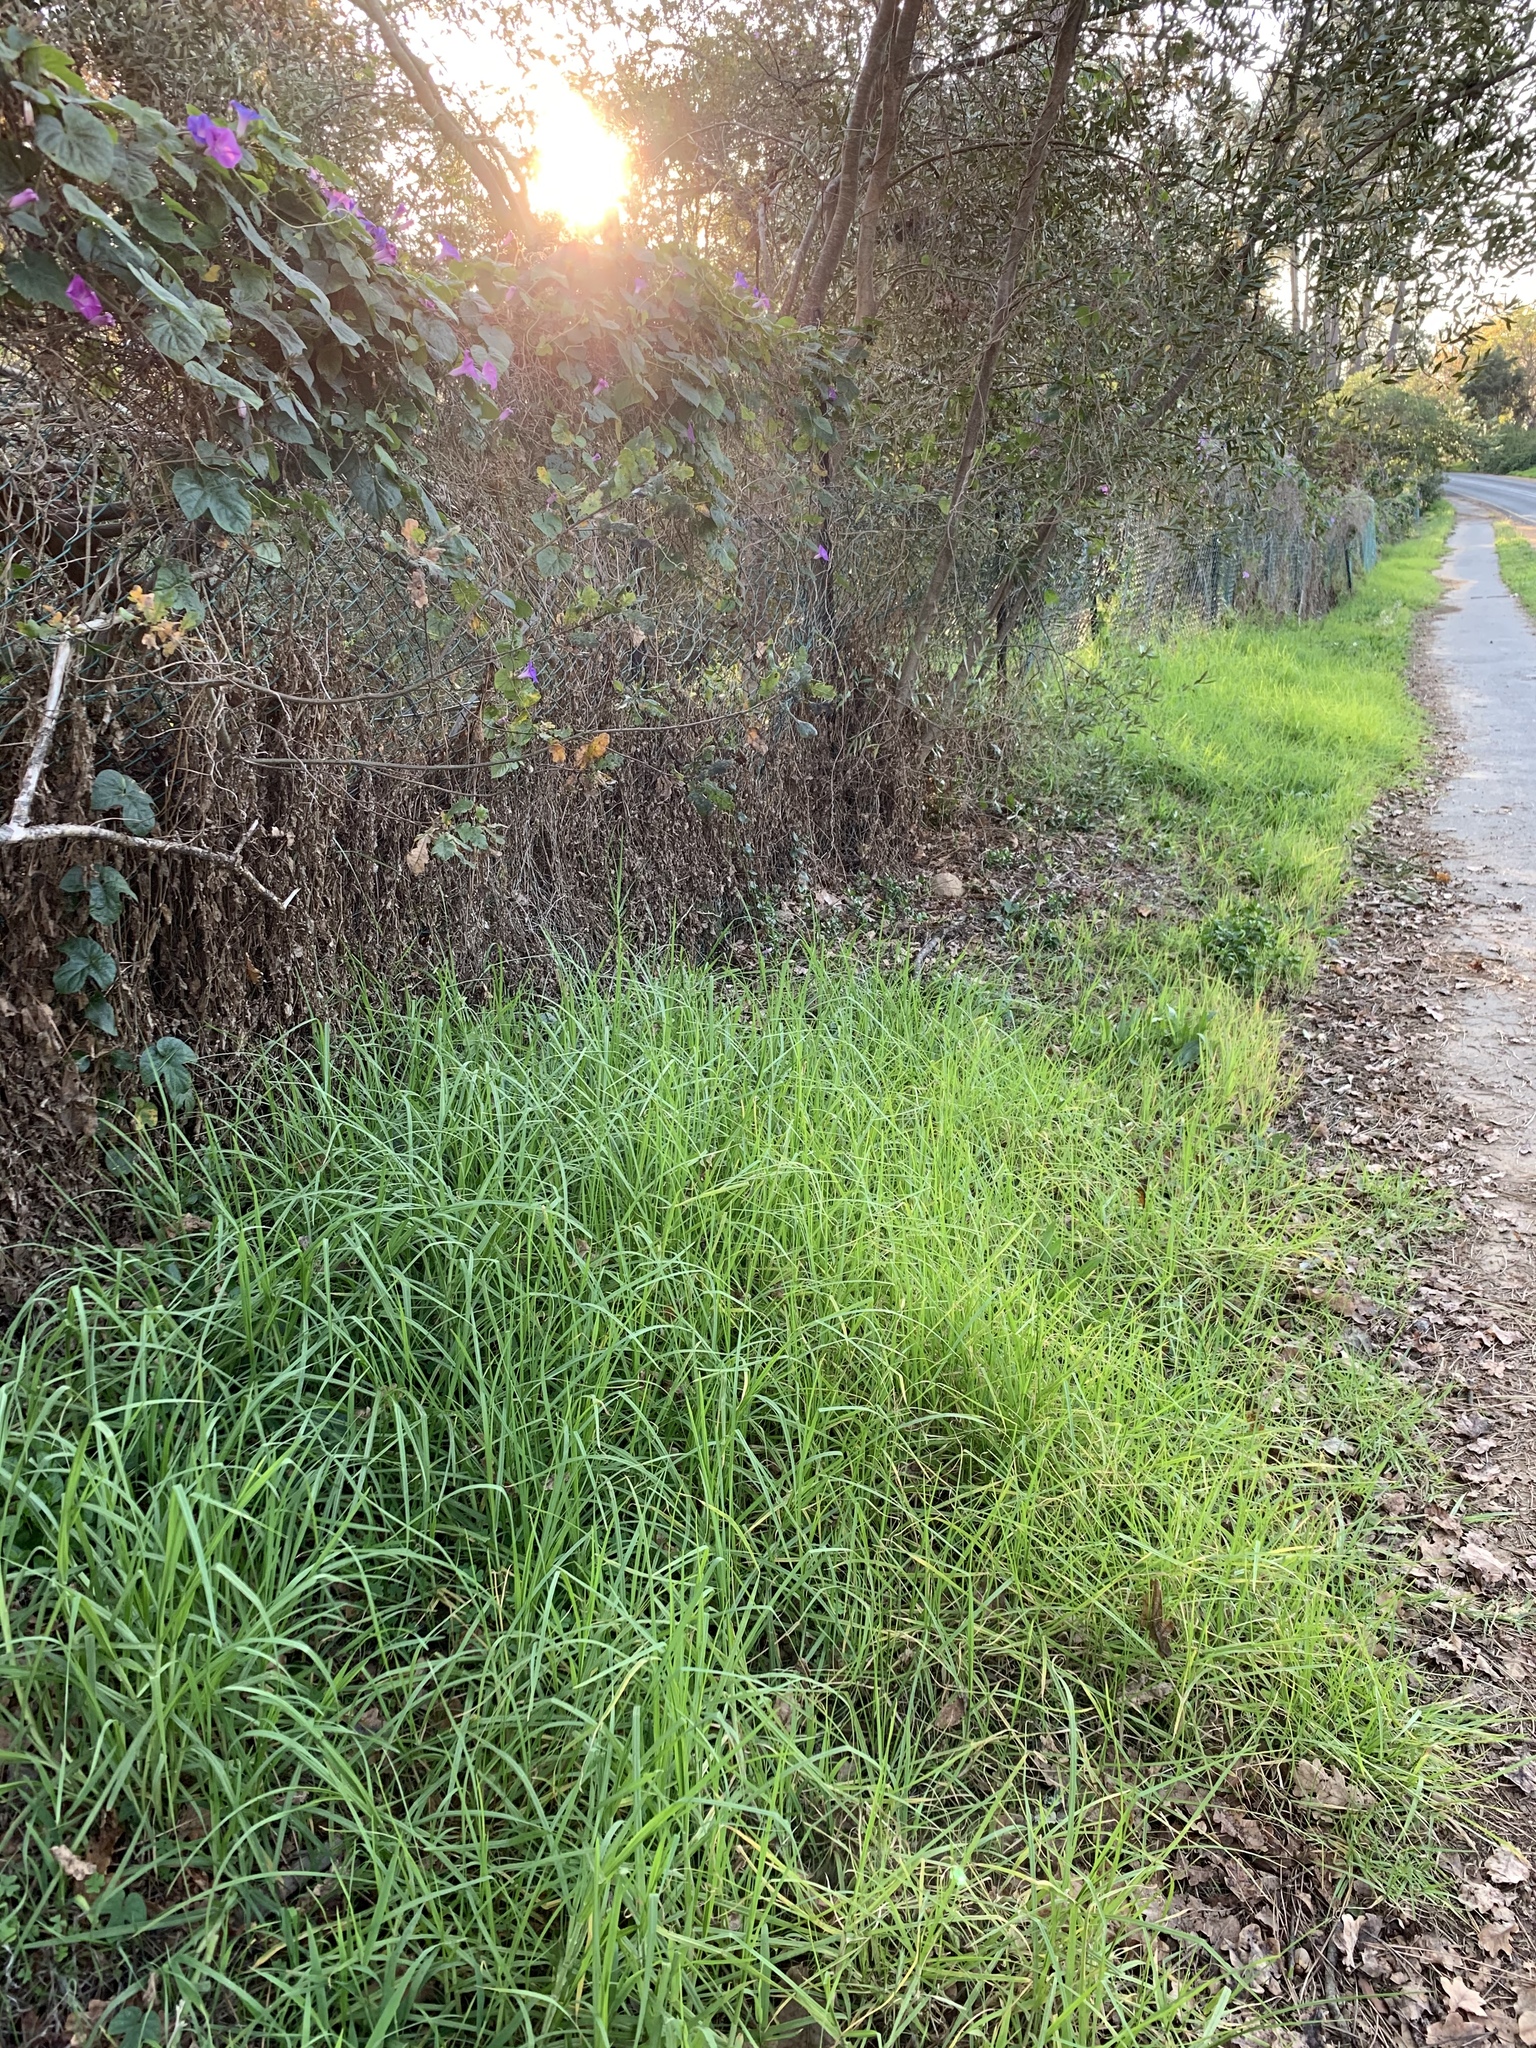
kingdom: Plantae
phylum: Tracheophyta
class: Liliopsida
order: Poales
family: Poaceae
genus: Cenchrus
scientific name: Cenchrus clandestinus
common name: Kikuyugrass
